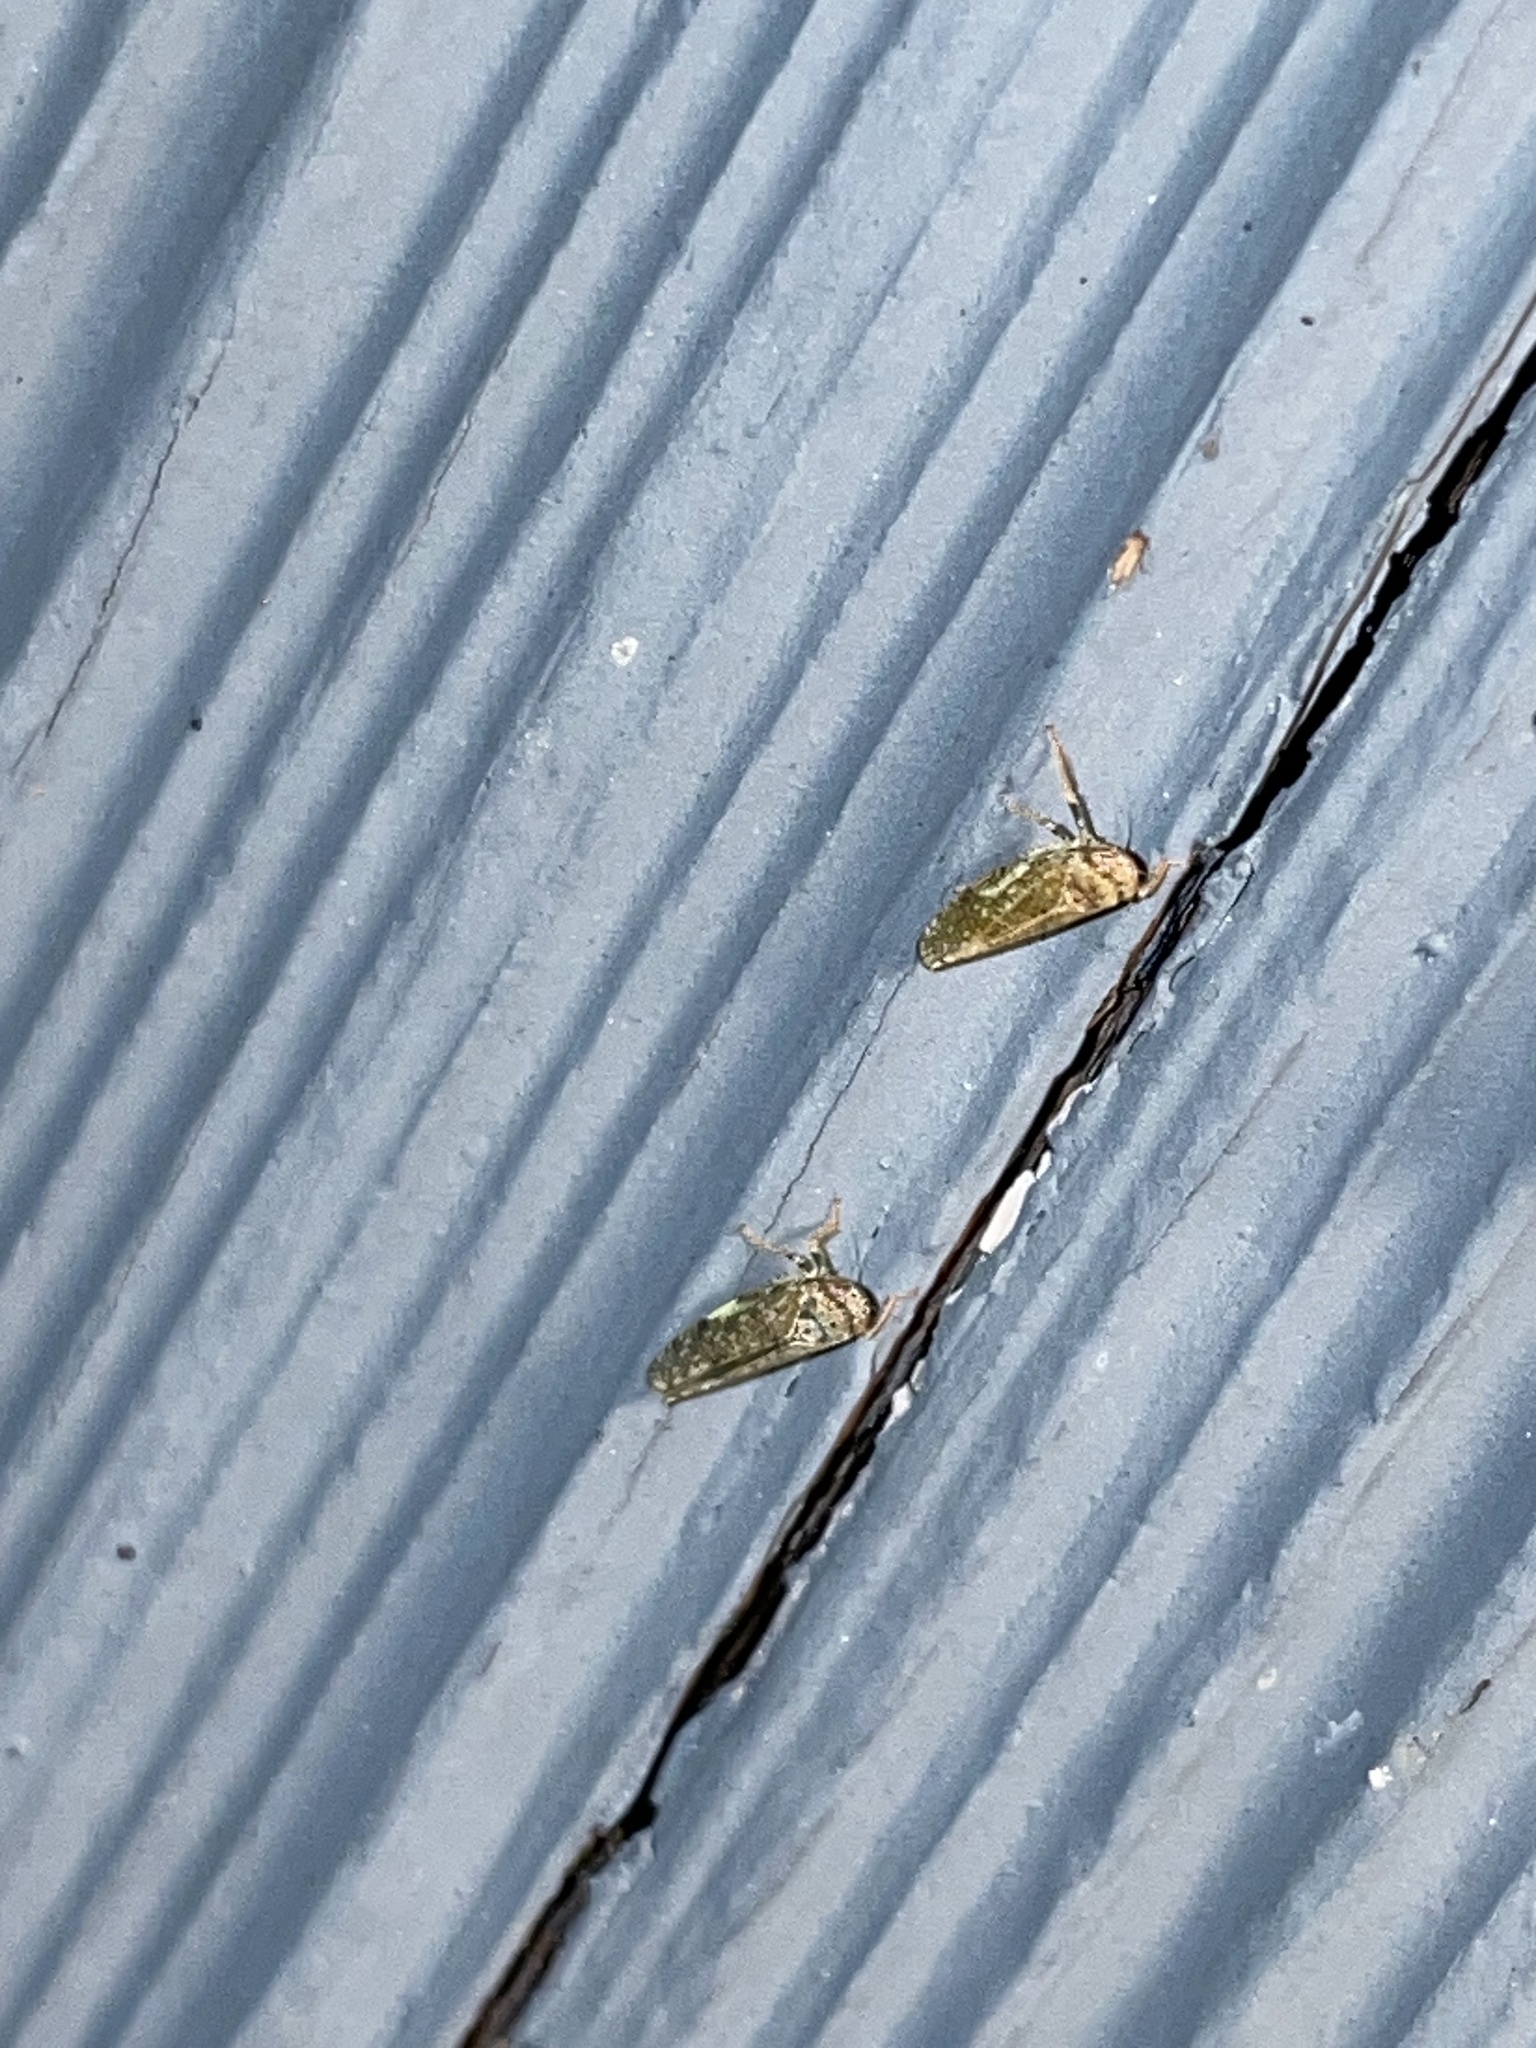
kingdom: Animalia
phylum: Arthropoda
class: Insecta
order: Hemiptera
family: Cicadellidae
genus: Orientus
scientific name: Orientus ishidae
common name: Japanese leafhopper
